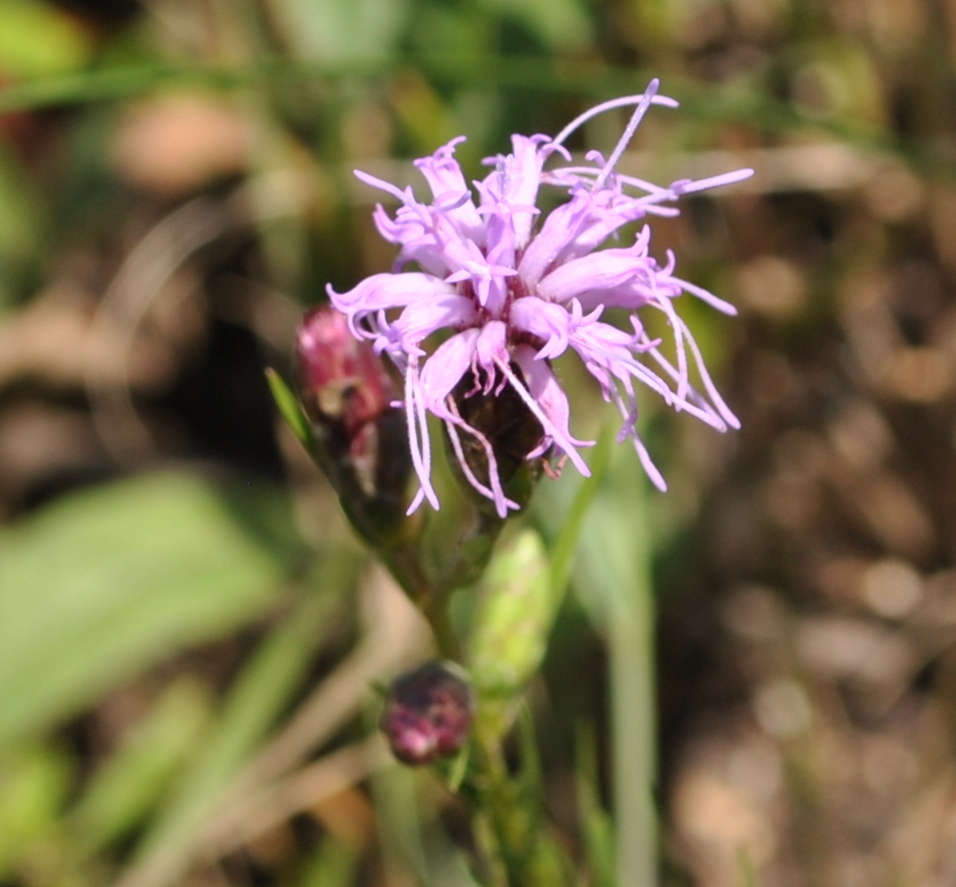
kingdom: Plantae
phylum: Tracheophyta
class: Magnoliopsida
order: Asterales
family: Asteraceae
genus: Liatris
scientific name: Liatris cylindracea
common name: Few-head blazingstar
